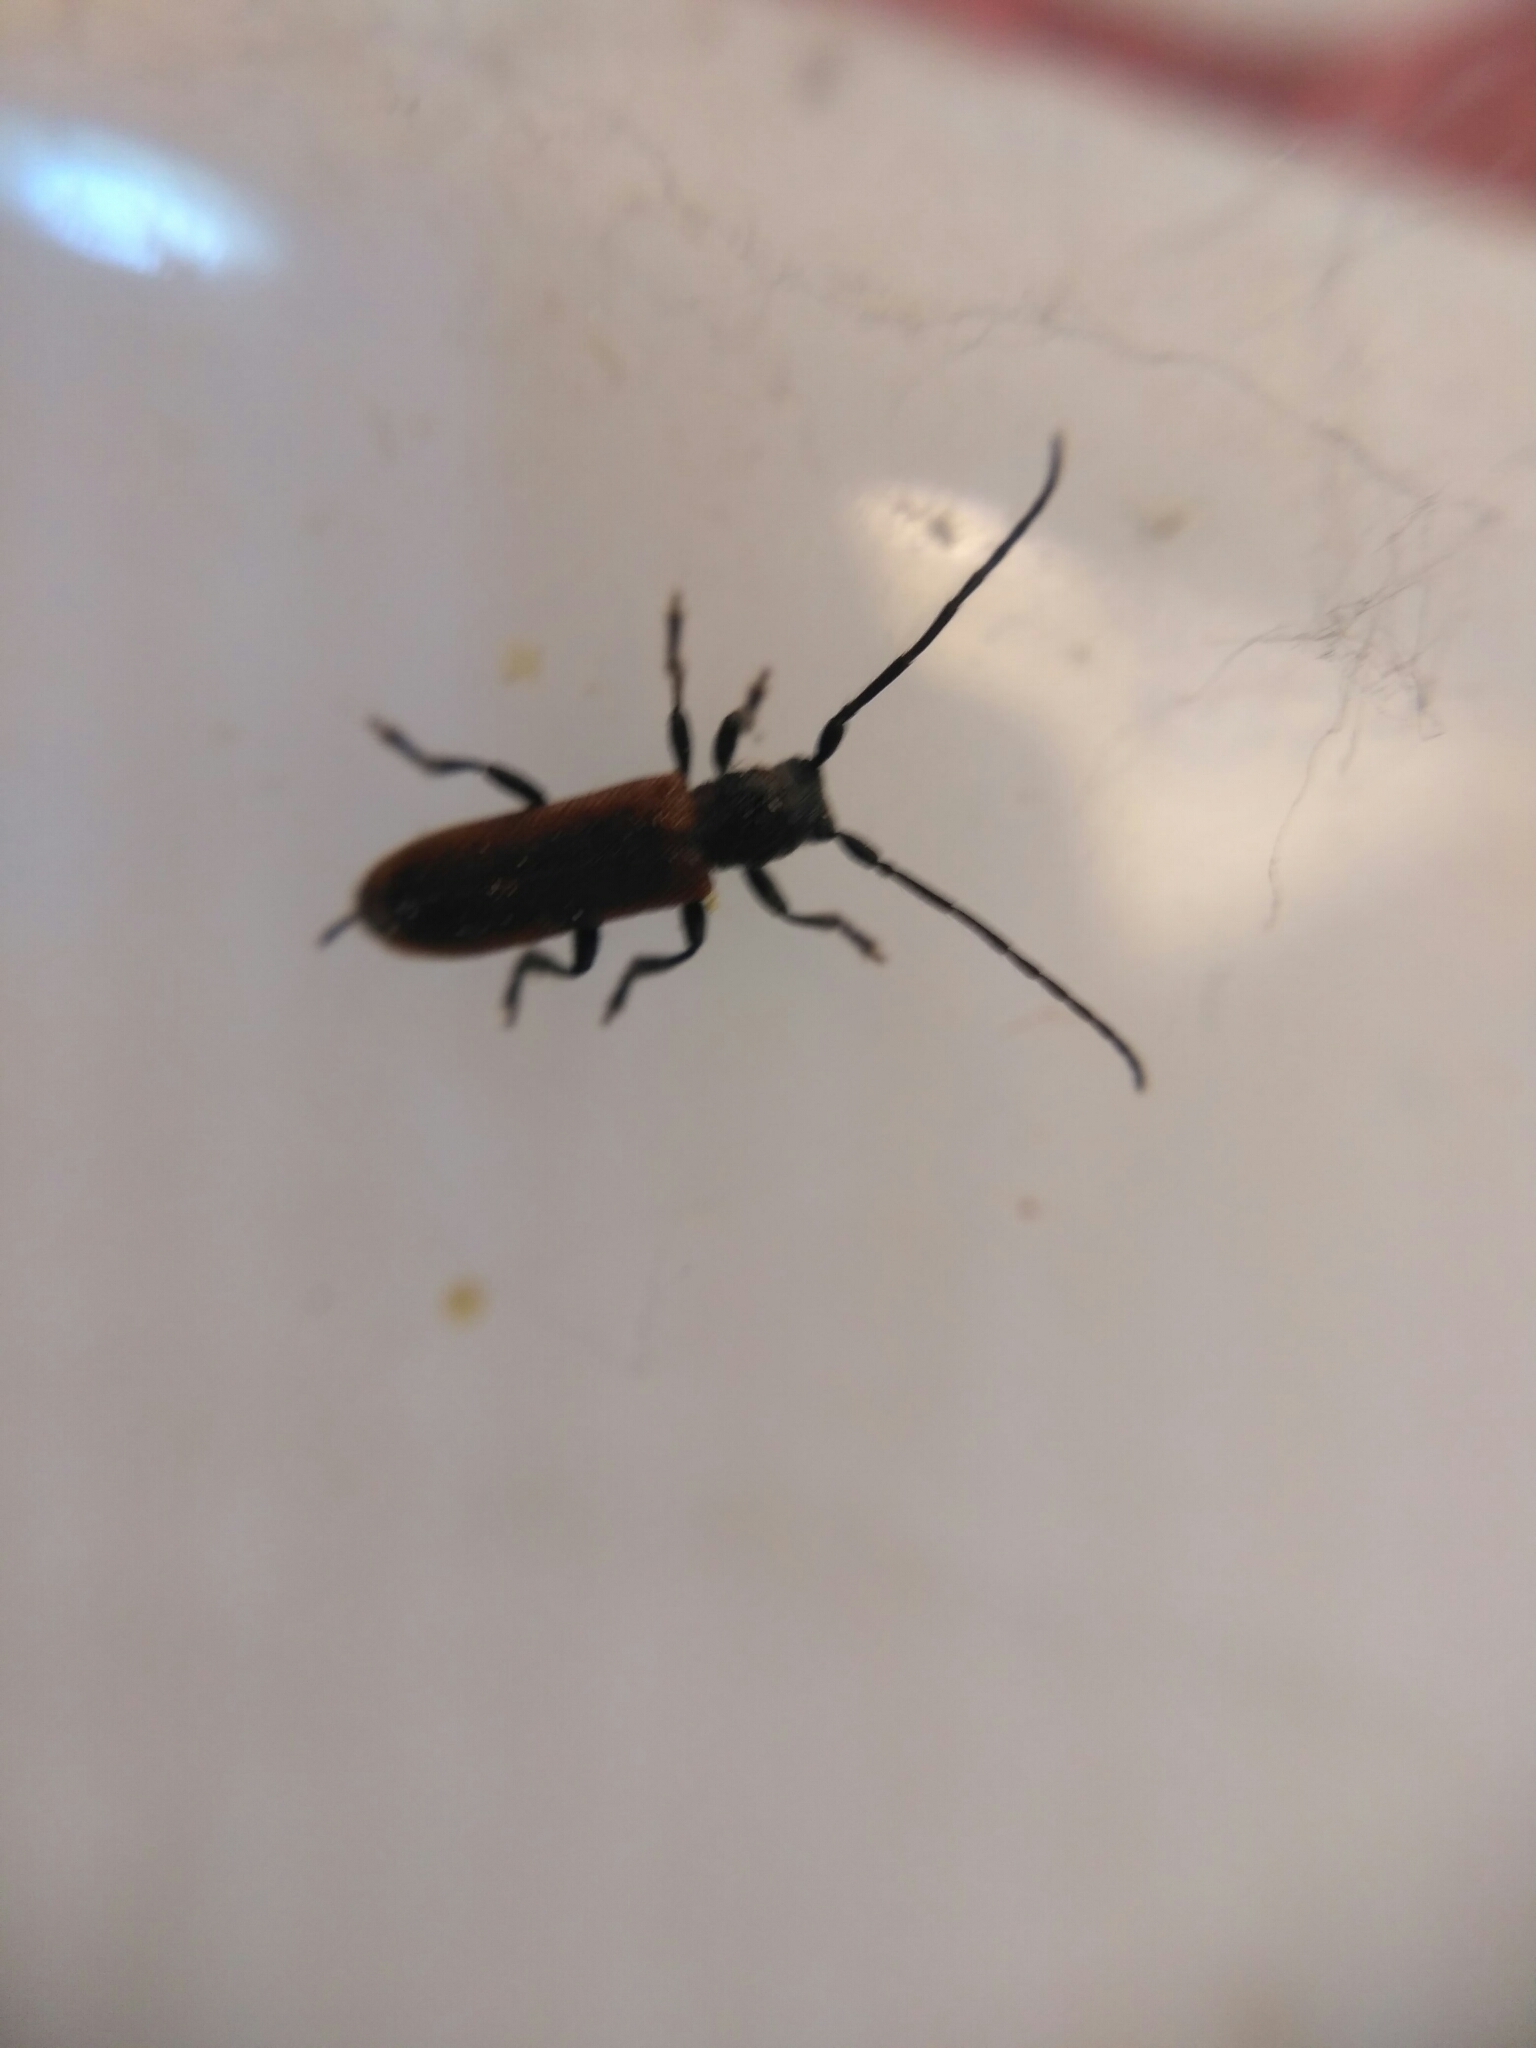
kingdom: Animalia
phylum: Arthropoda
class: Insecta
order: Coleoptera
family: Cerambycidae
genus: Anaesthetis
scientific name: Anaesthetis testacea
